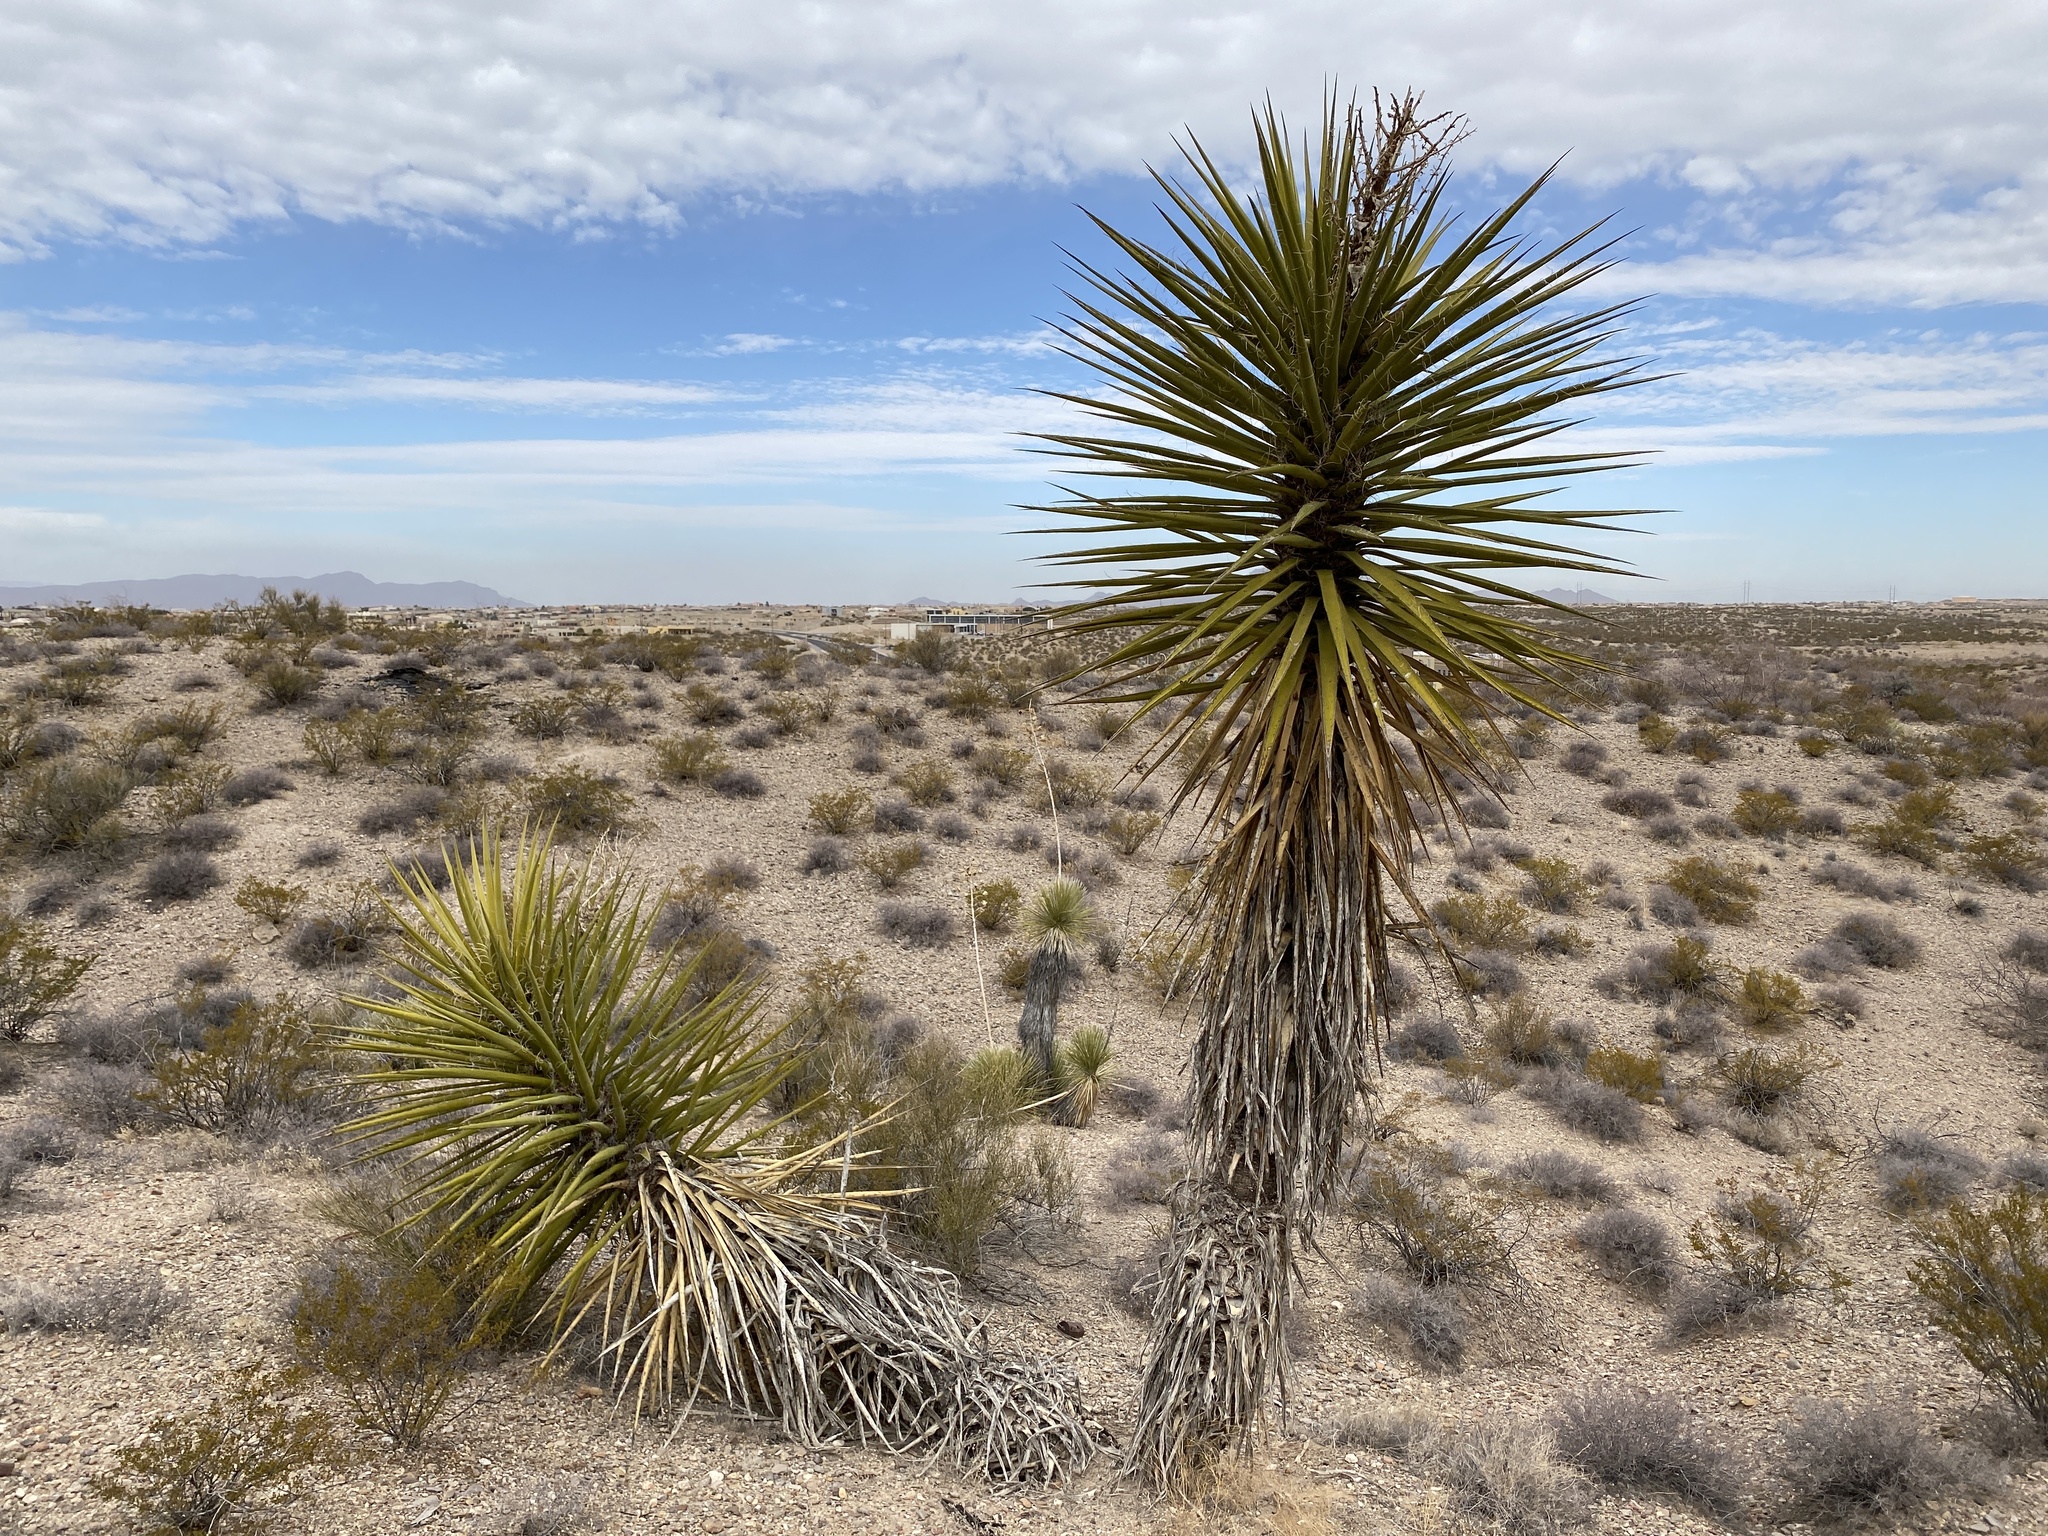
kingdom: Plantae
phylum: Tracheophyta
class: Liliopsida
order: Asparagales
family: Asparagaceae
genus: Yucca
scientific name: Yucca treculiana
